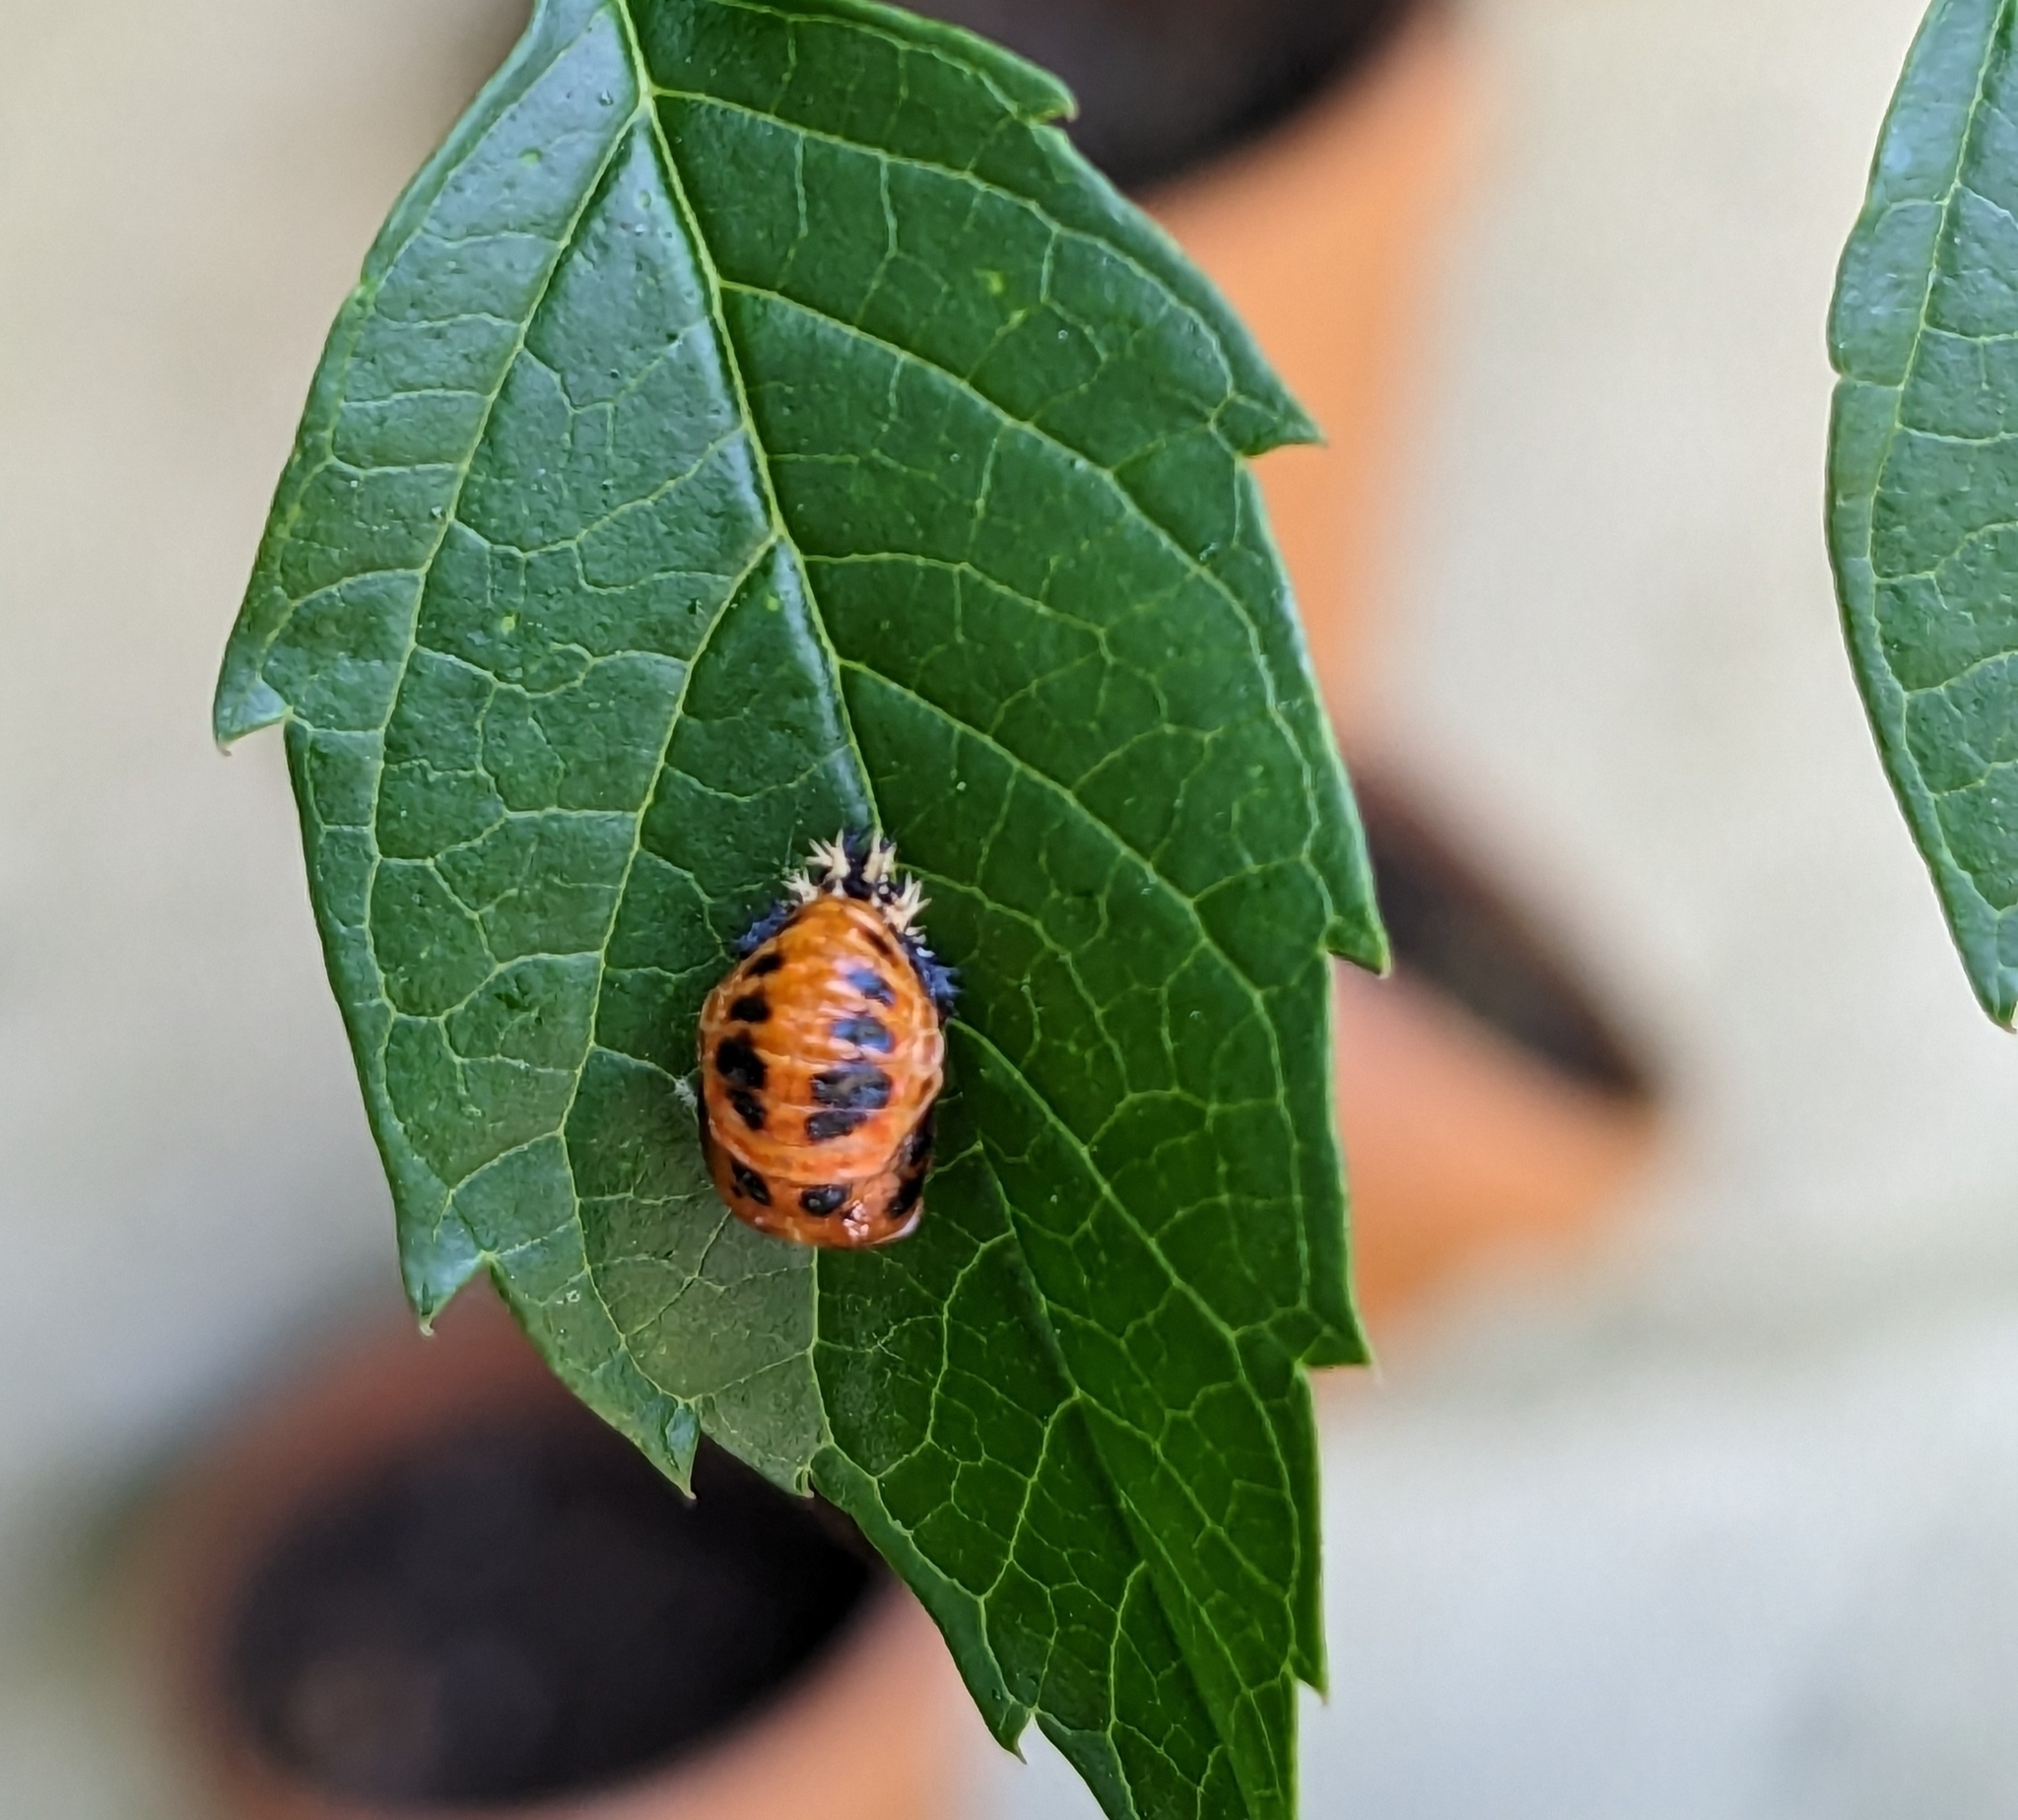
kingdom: Animalia
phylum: Arthropoda
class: Insecta
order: Coleoptera
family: Coccinellidae
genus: Harmonia
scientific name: Harmonia axyridis
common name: Harlequin ladybird
